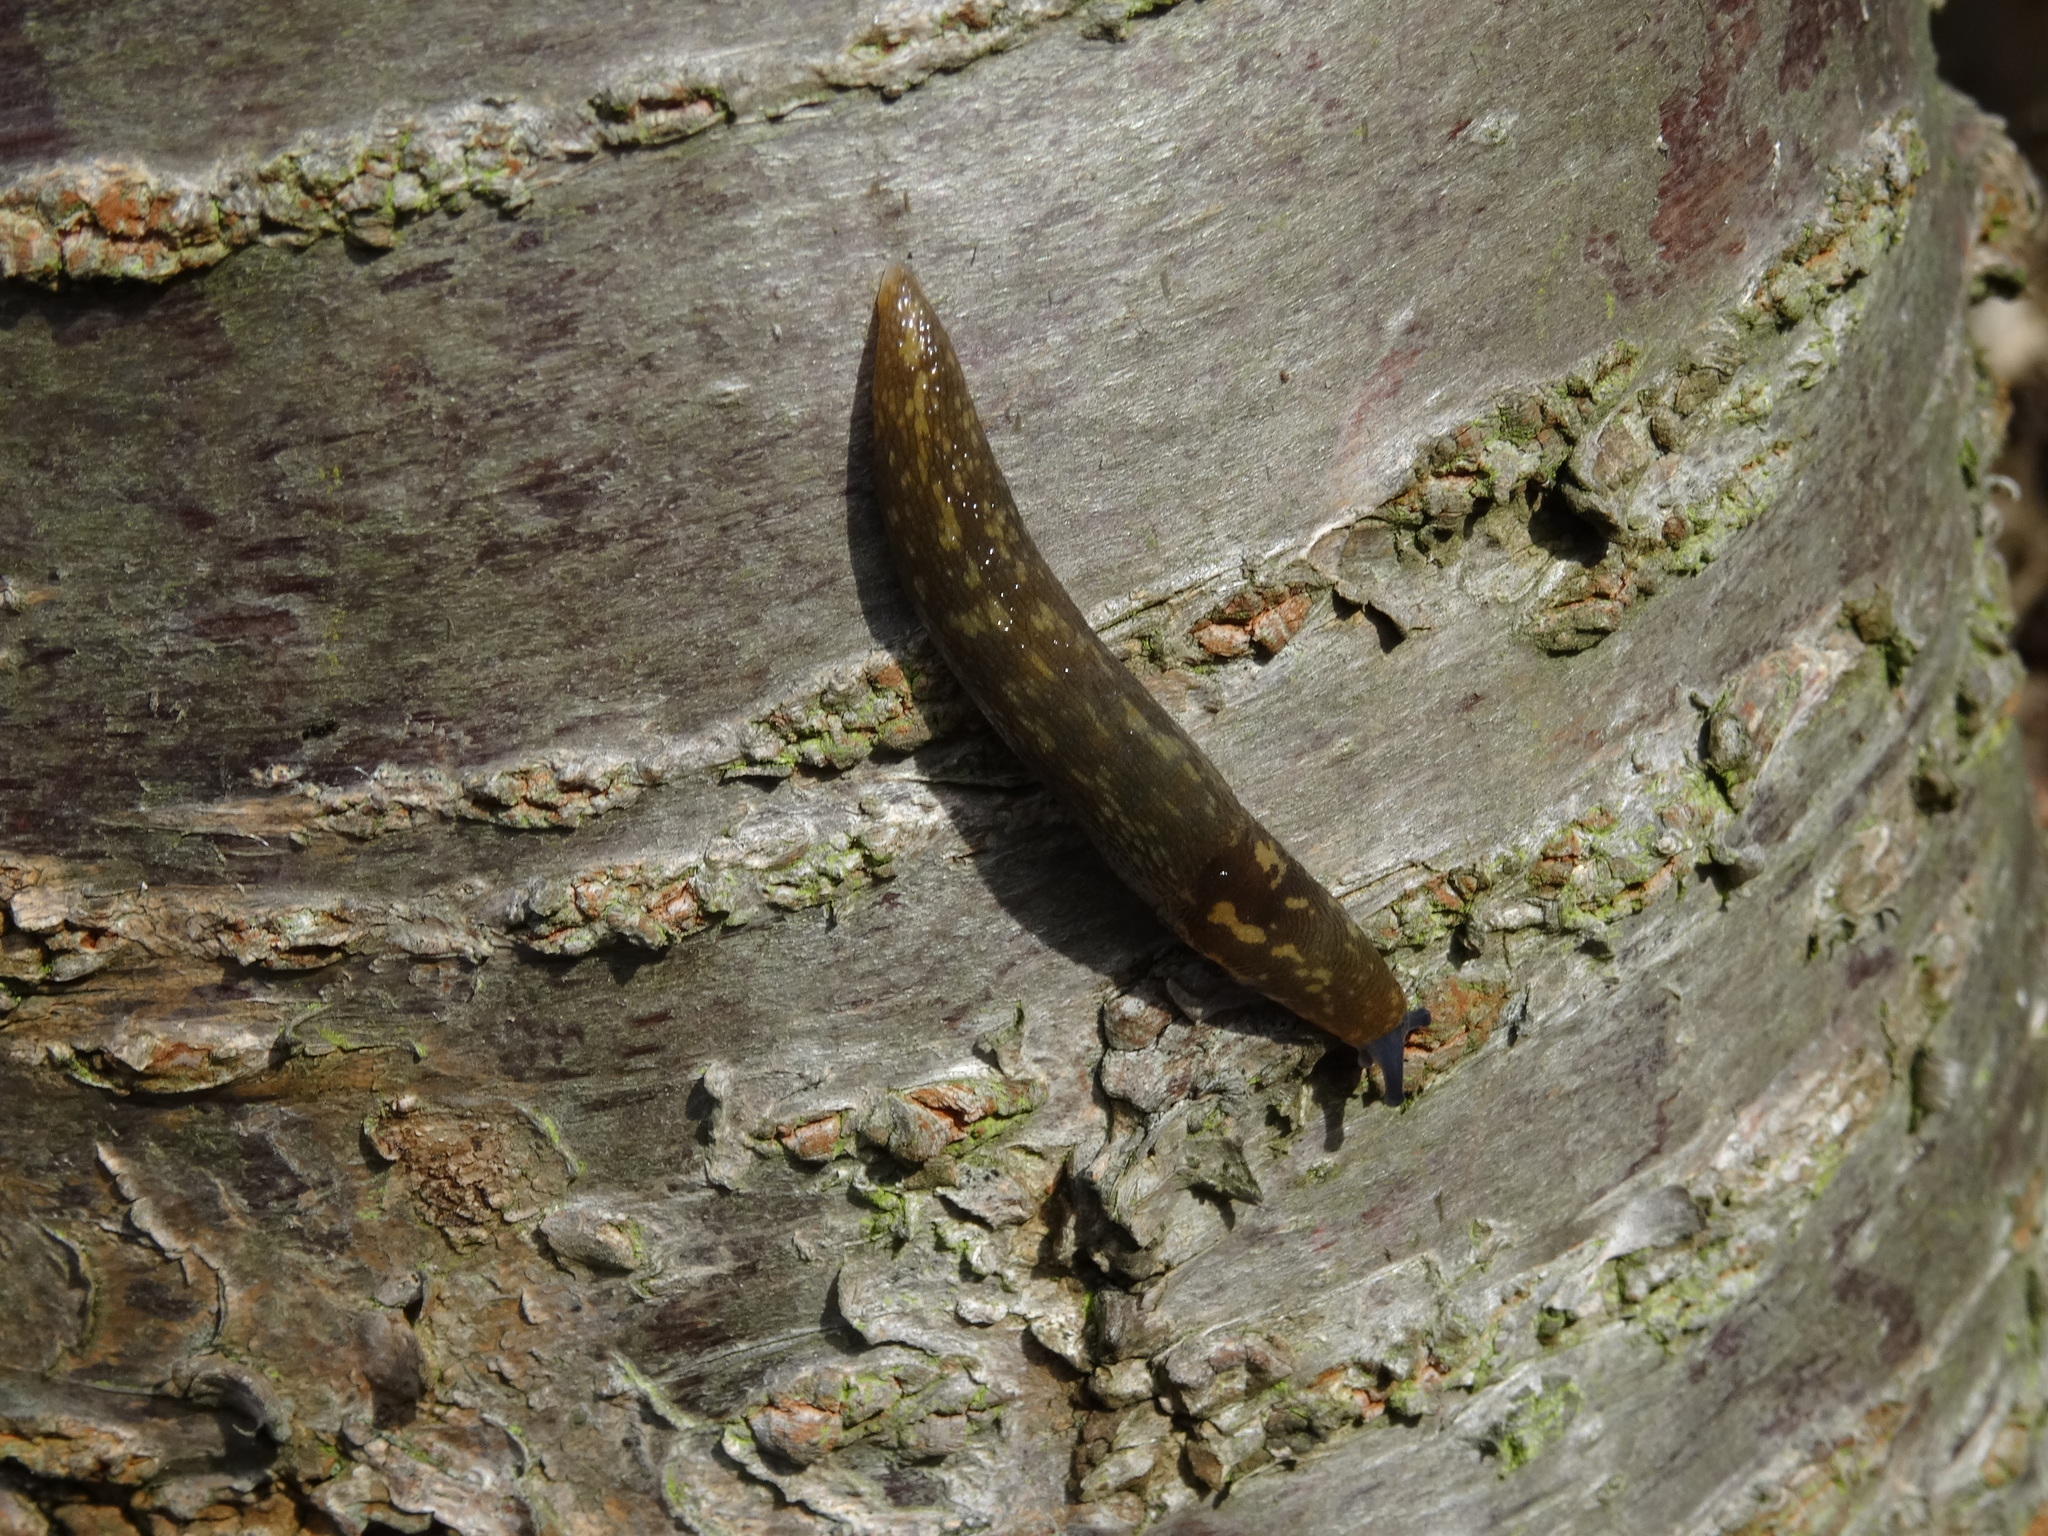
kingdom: Animalia
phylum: Mollusca
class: Gastropoda
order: Stylommatophora
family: Limacidae
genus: Limacus
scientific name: Limacus maculatus
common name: Irish yellow slug
